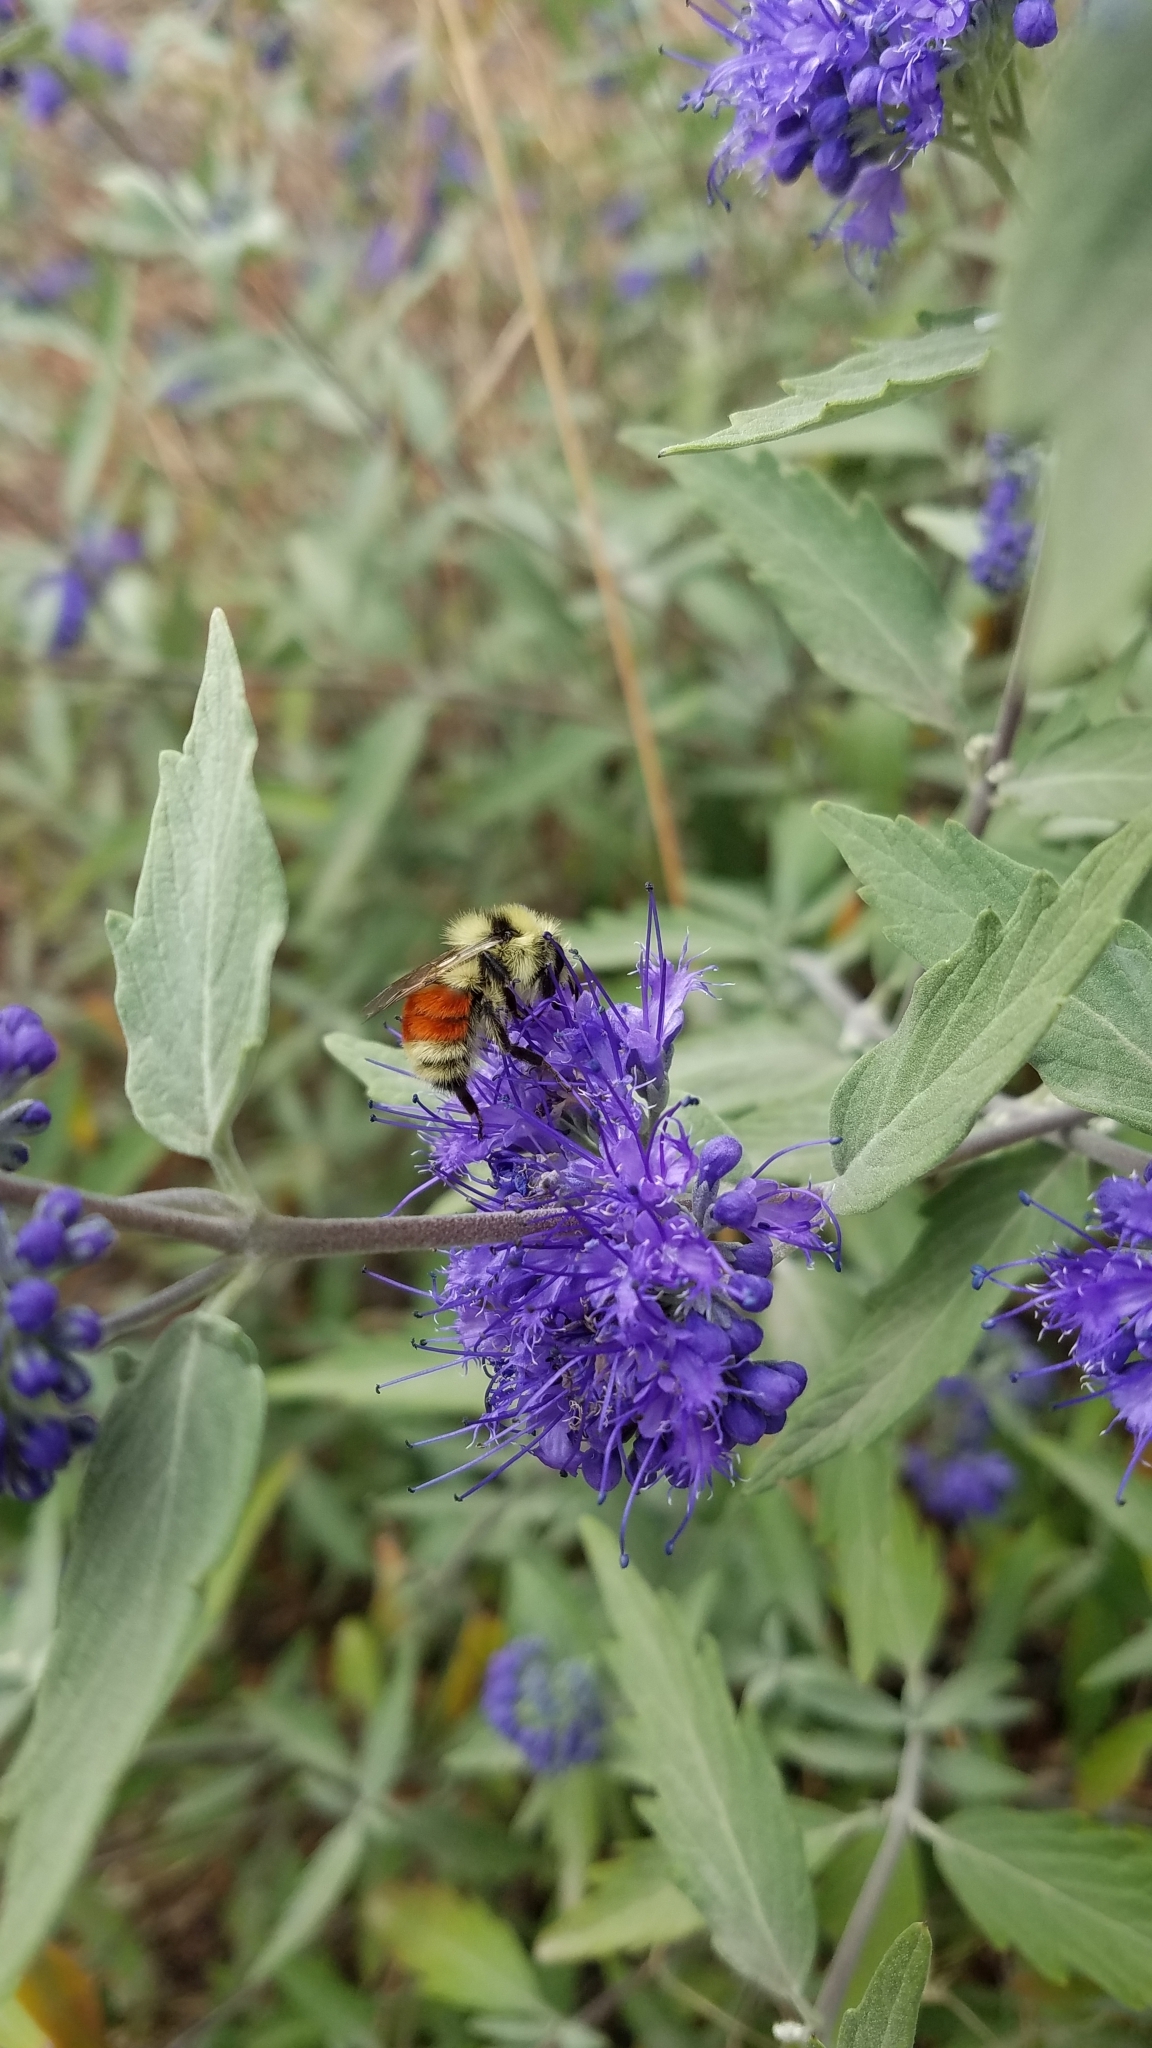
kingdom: Animalia
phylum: Arthropoda
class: Insecta
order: Hymenoptera
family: Apidae
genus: Bombus
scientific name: Bombus huntii
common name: Hunt bumble bee
